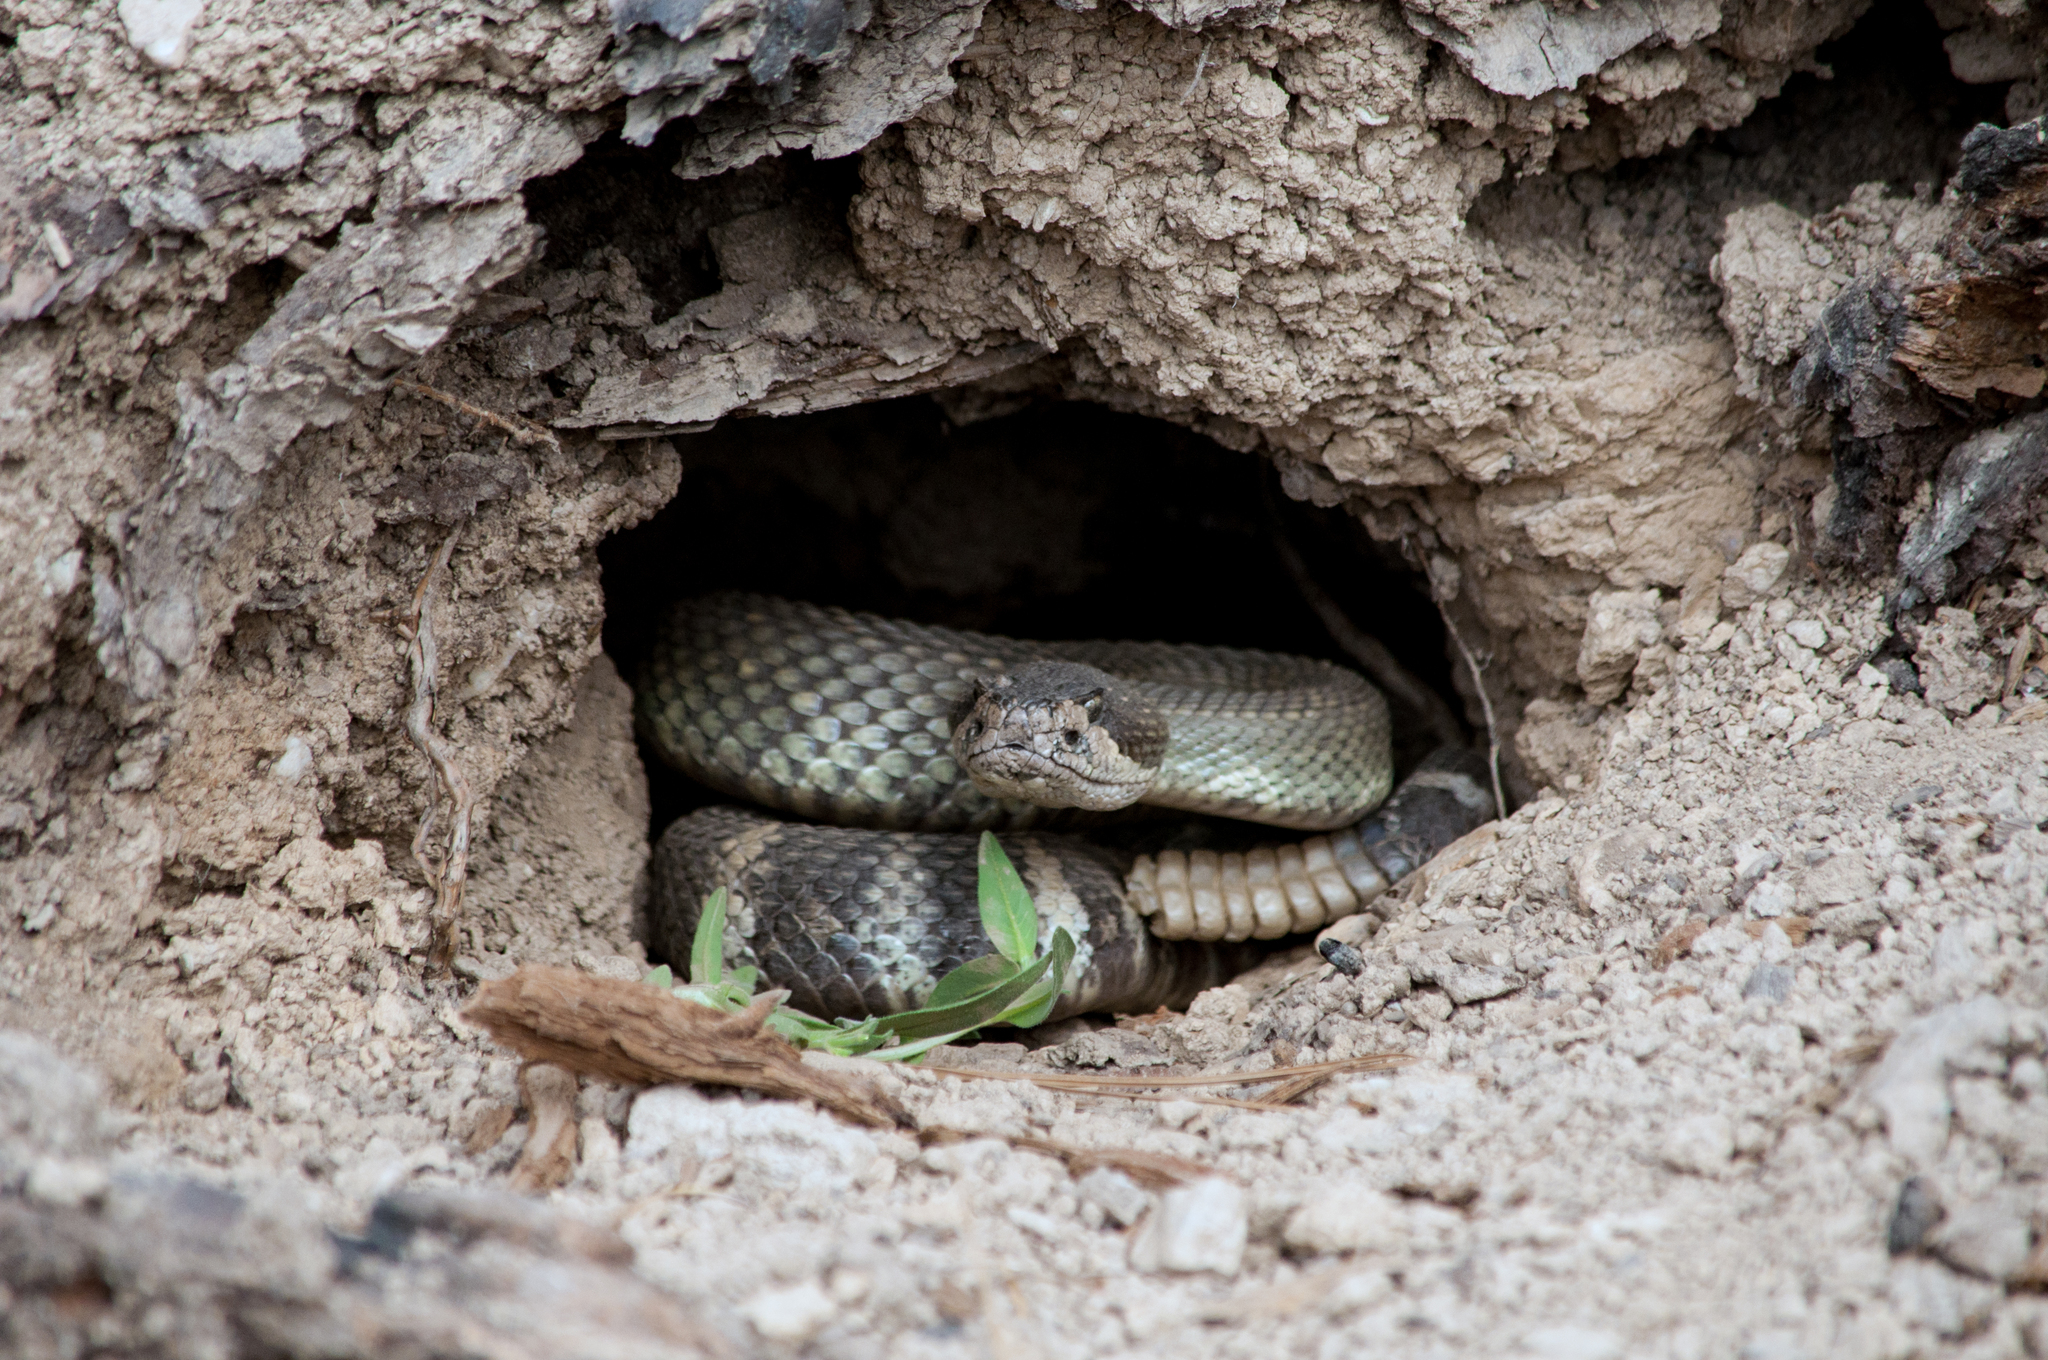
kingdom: Animalia
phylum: Chordata
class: Squamata
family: Viperidae
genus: Crotalus
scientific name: Crotalus oreganus
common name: Abyssus
